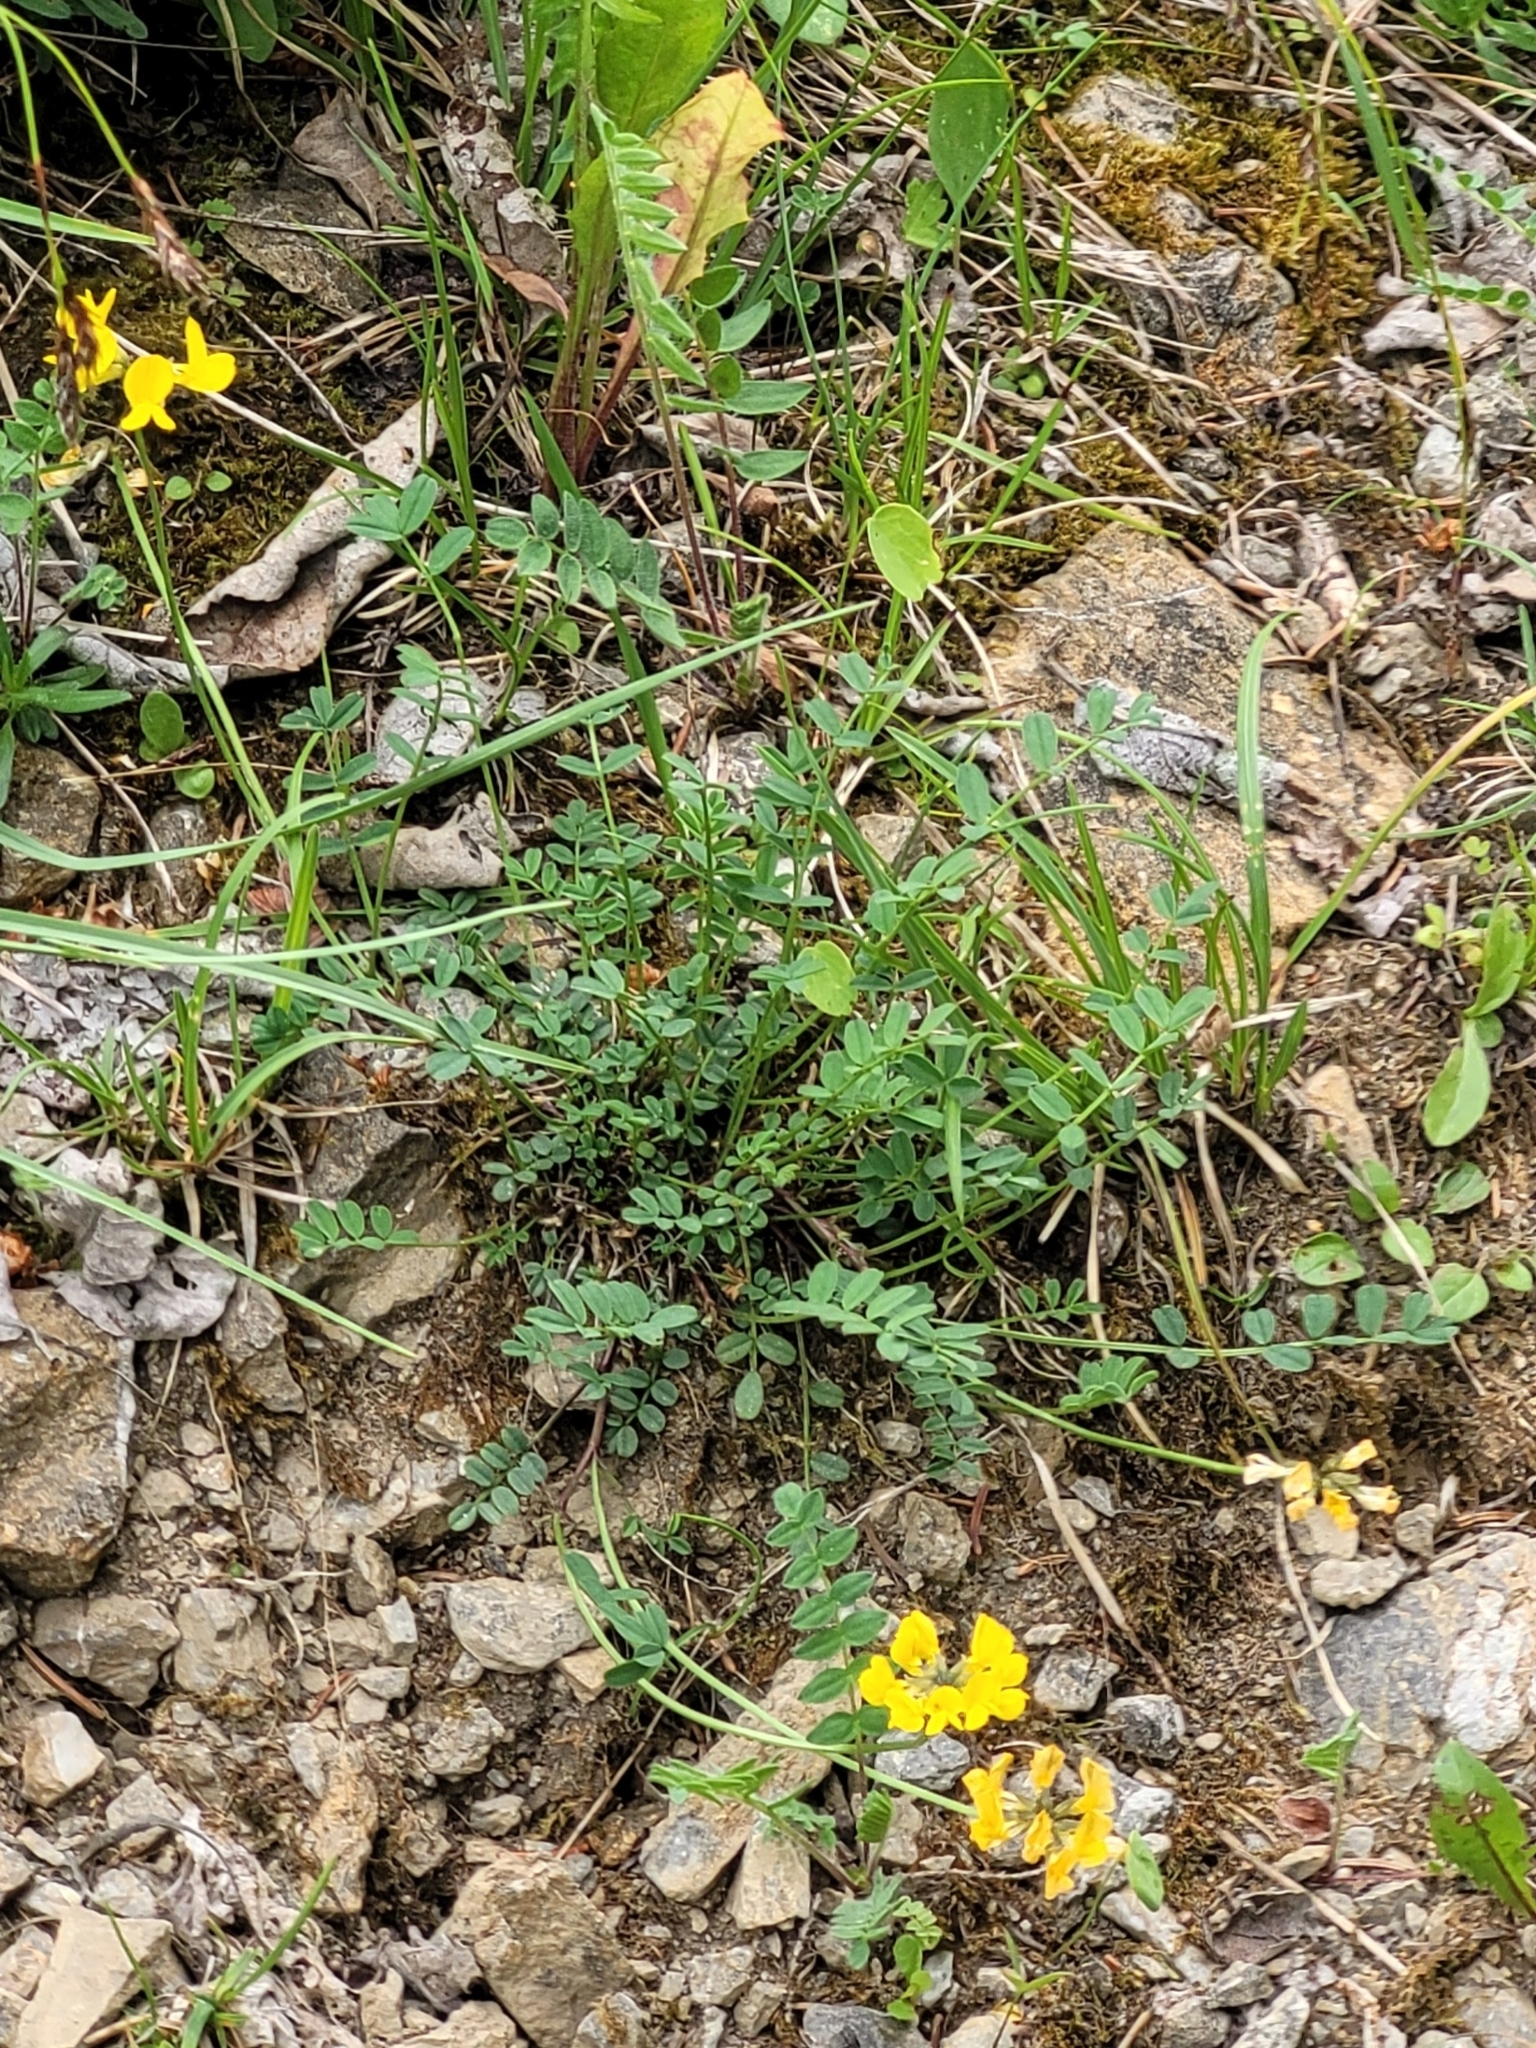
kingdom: Plantae
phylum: Tracheophyta
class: Magnoliopsida
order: Fabales
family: Fabaceae
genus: Hippocrepis
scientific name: Hippocrepis comosa
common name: Horseshoe vetch
